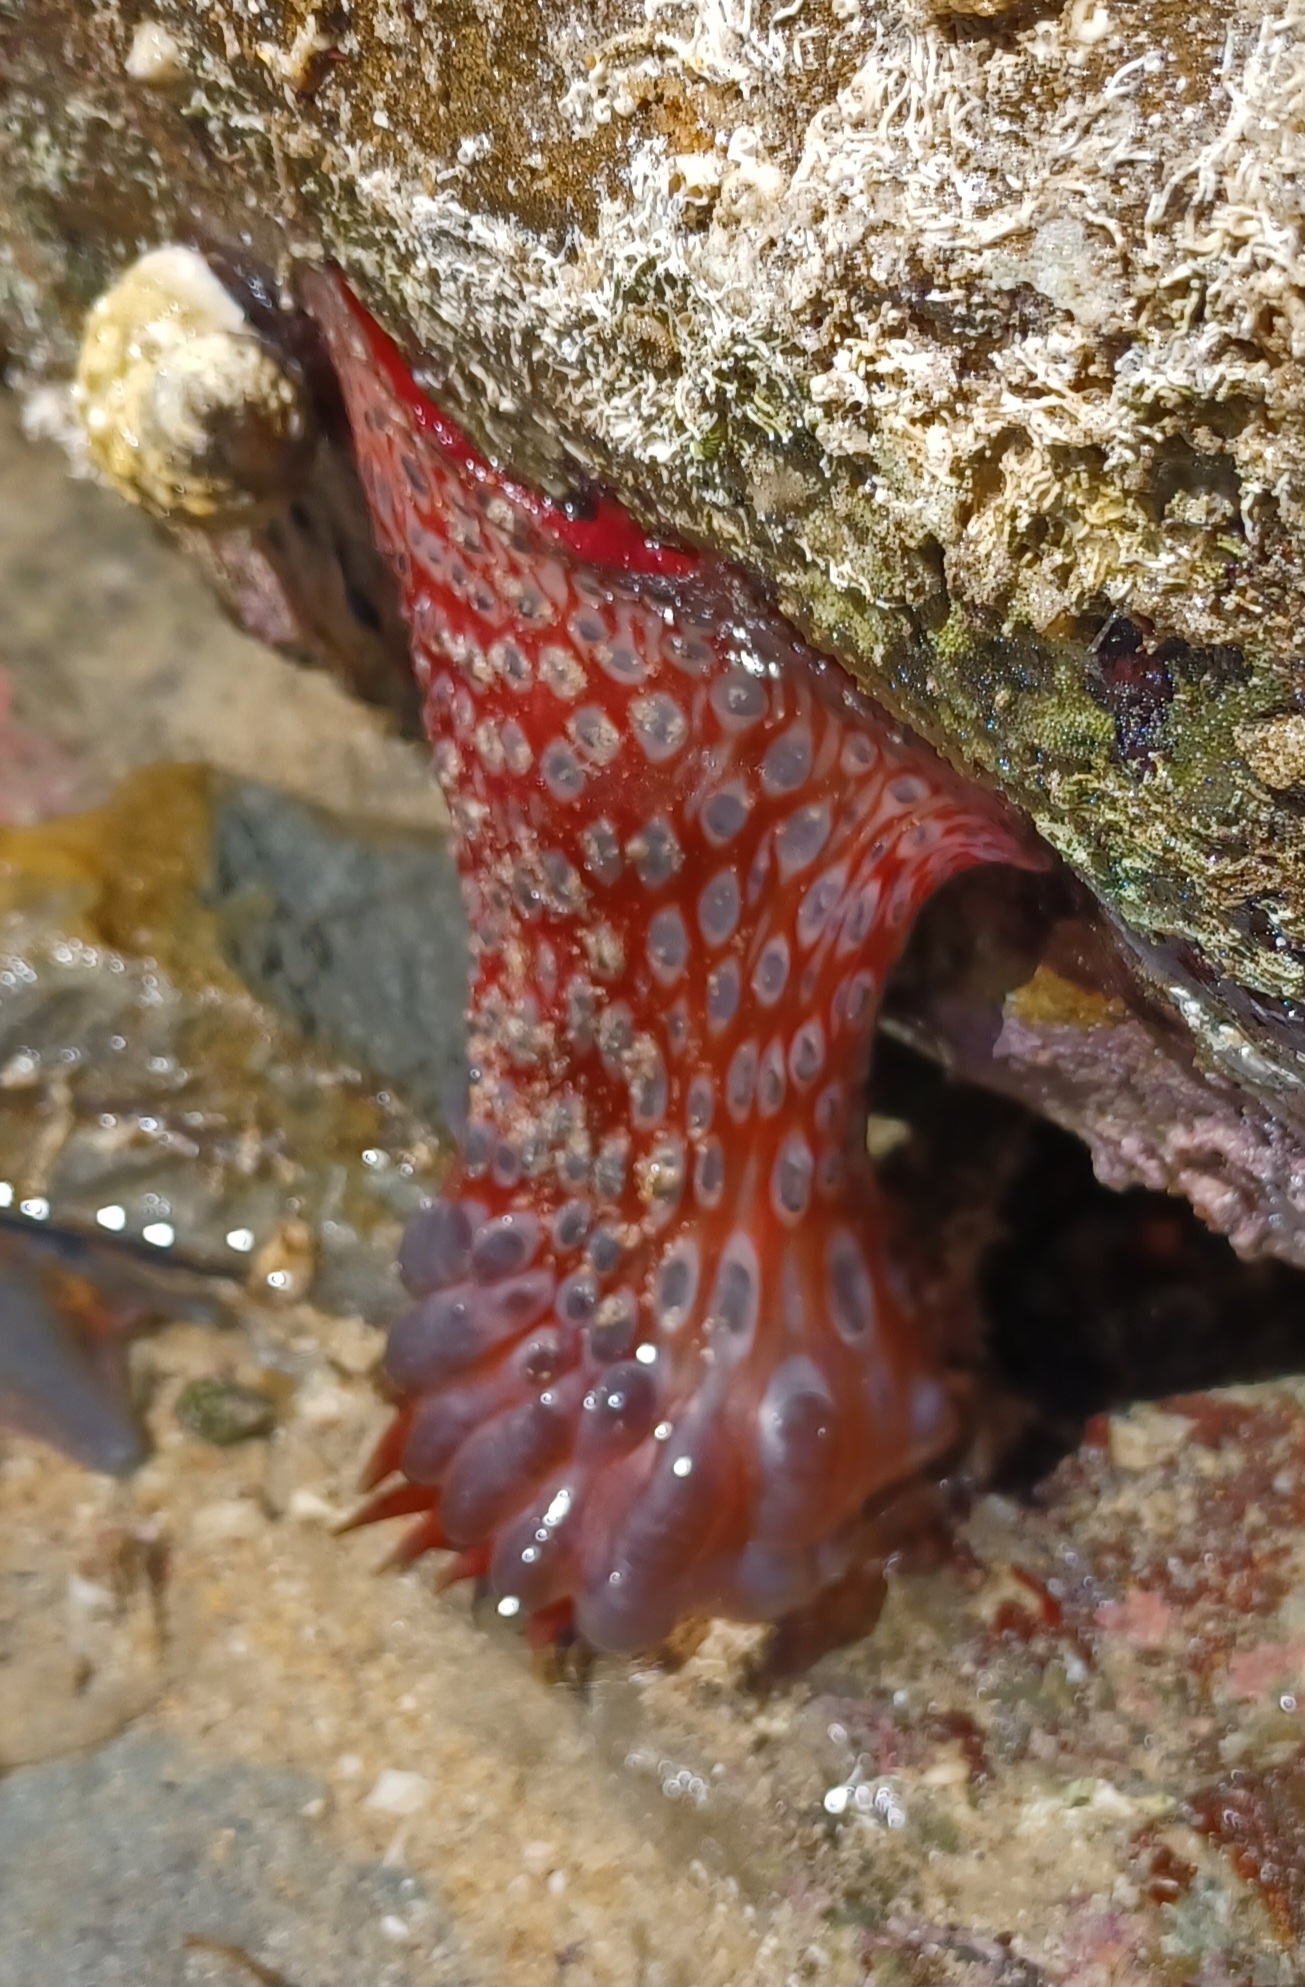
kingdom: Animalia
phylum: Cnidaria
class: Anthozoa
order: Actiniaria
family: Actiniidae
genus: Phlyctenanthus
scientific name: Phlyctenanthus australis
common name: Southern anemone
